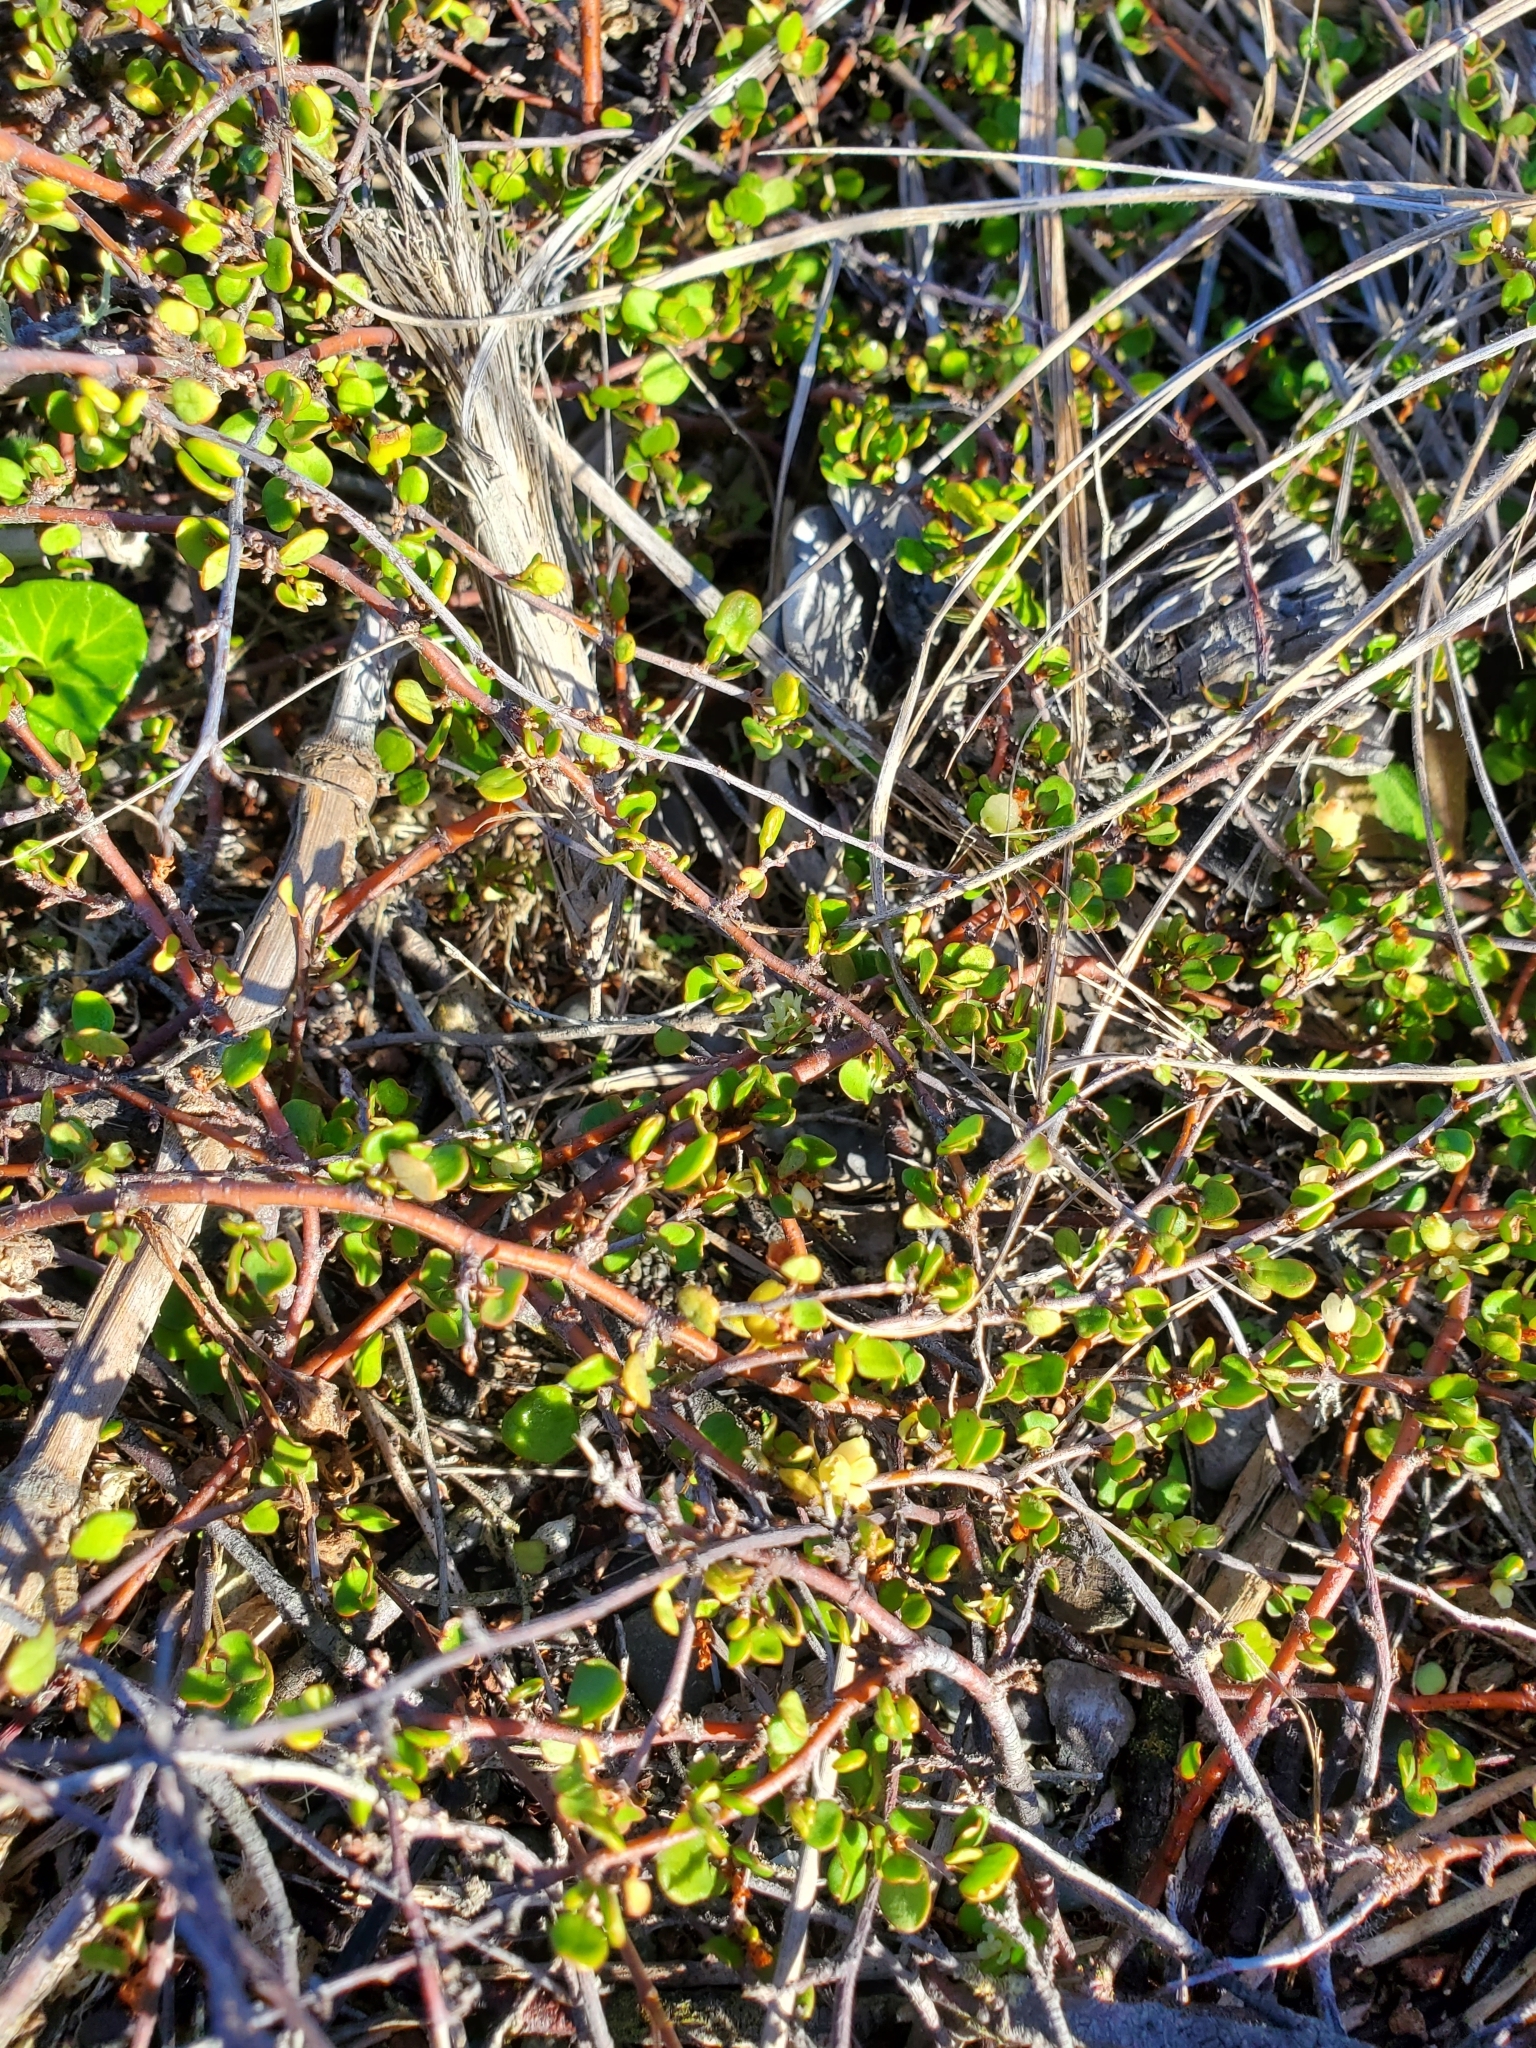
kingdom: Plantae
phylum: Tracheophyta
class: Magnoliopsida
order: Caryophyllales
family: Polygonaceae
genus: Muehlenbeckia
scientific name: Muehlenbeckia complexa
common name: Wireplant
